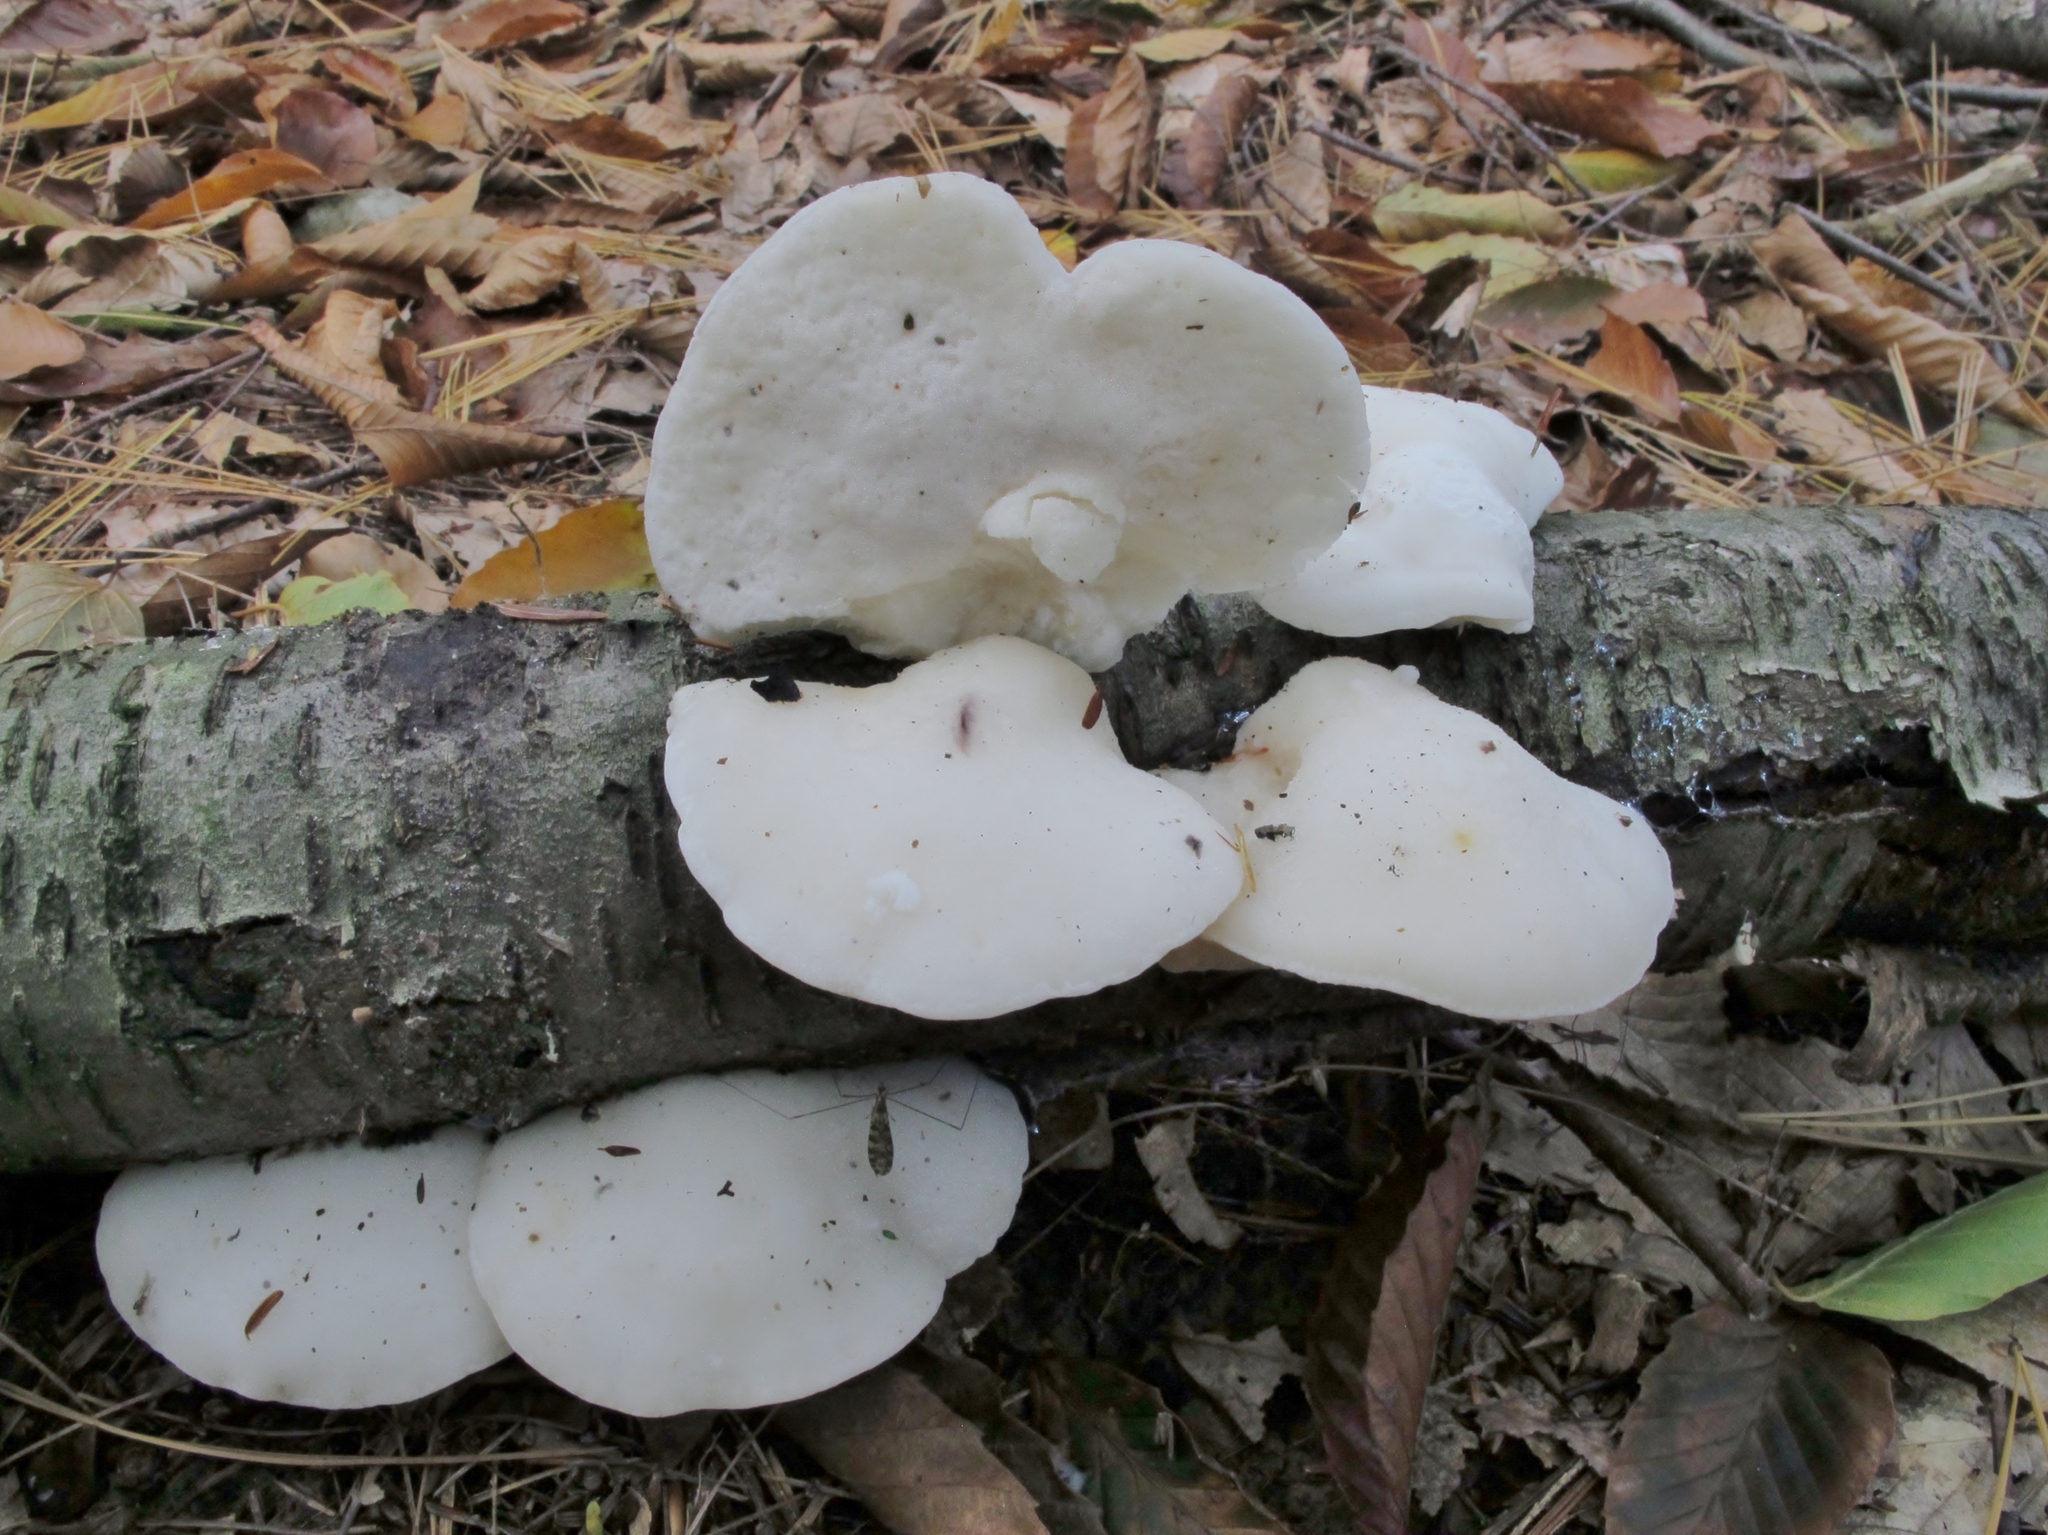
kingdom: Fungi
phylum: Basidiomycota
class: Agaricomycetes
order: Polyporales
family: Incrustoporiaceae
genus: Tyromyces
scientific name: Tyromyces chioneus
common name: White cheese polypore
